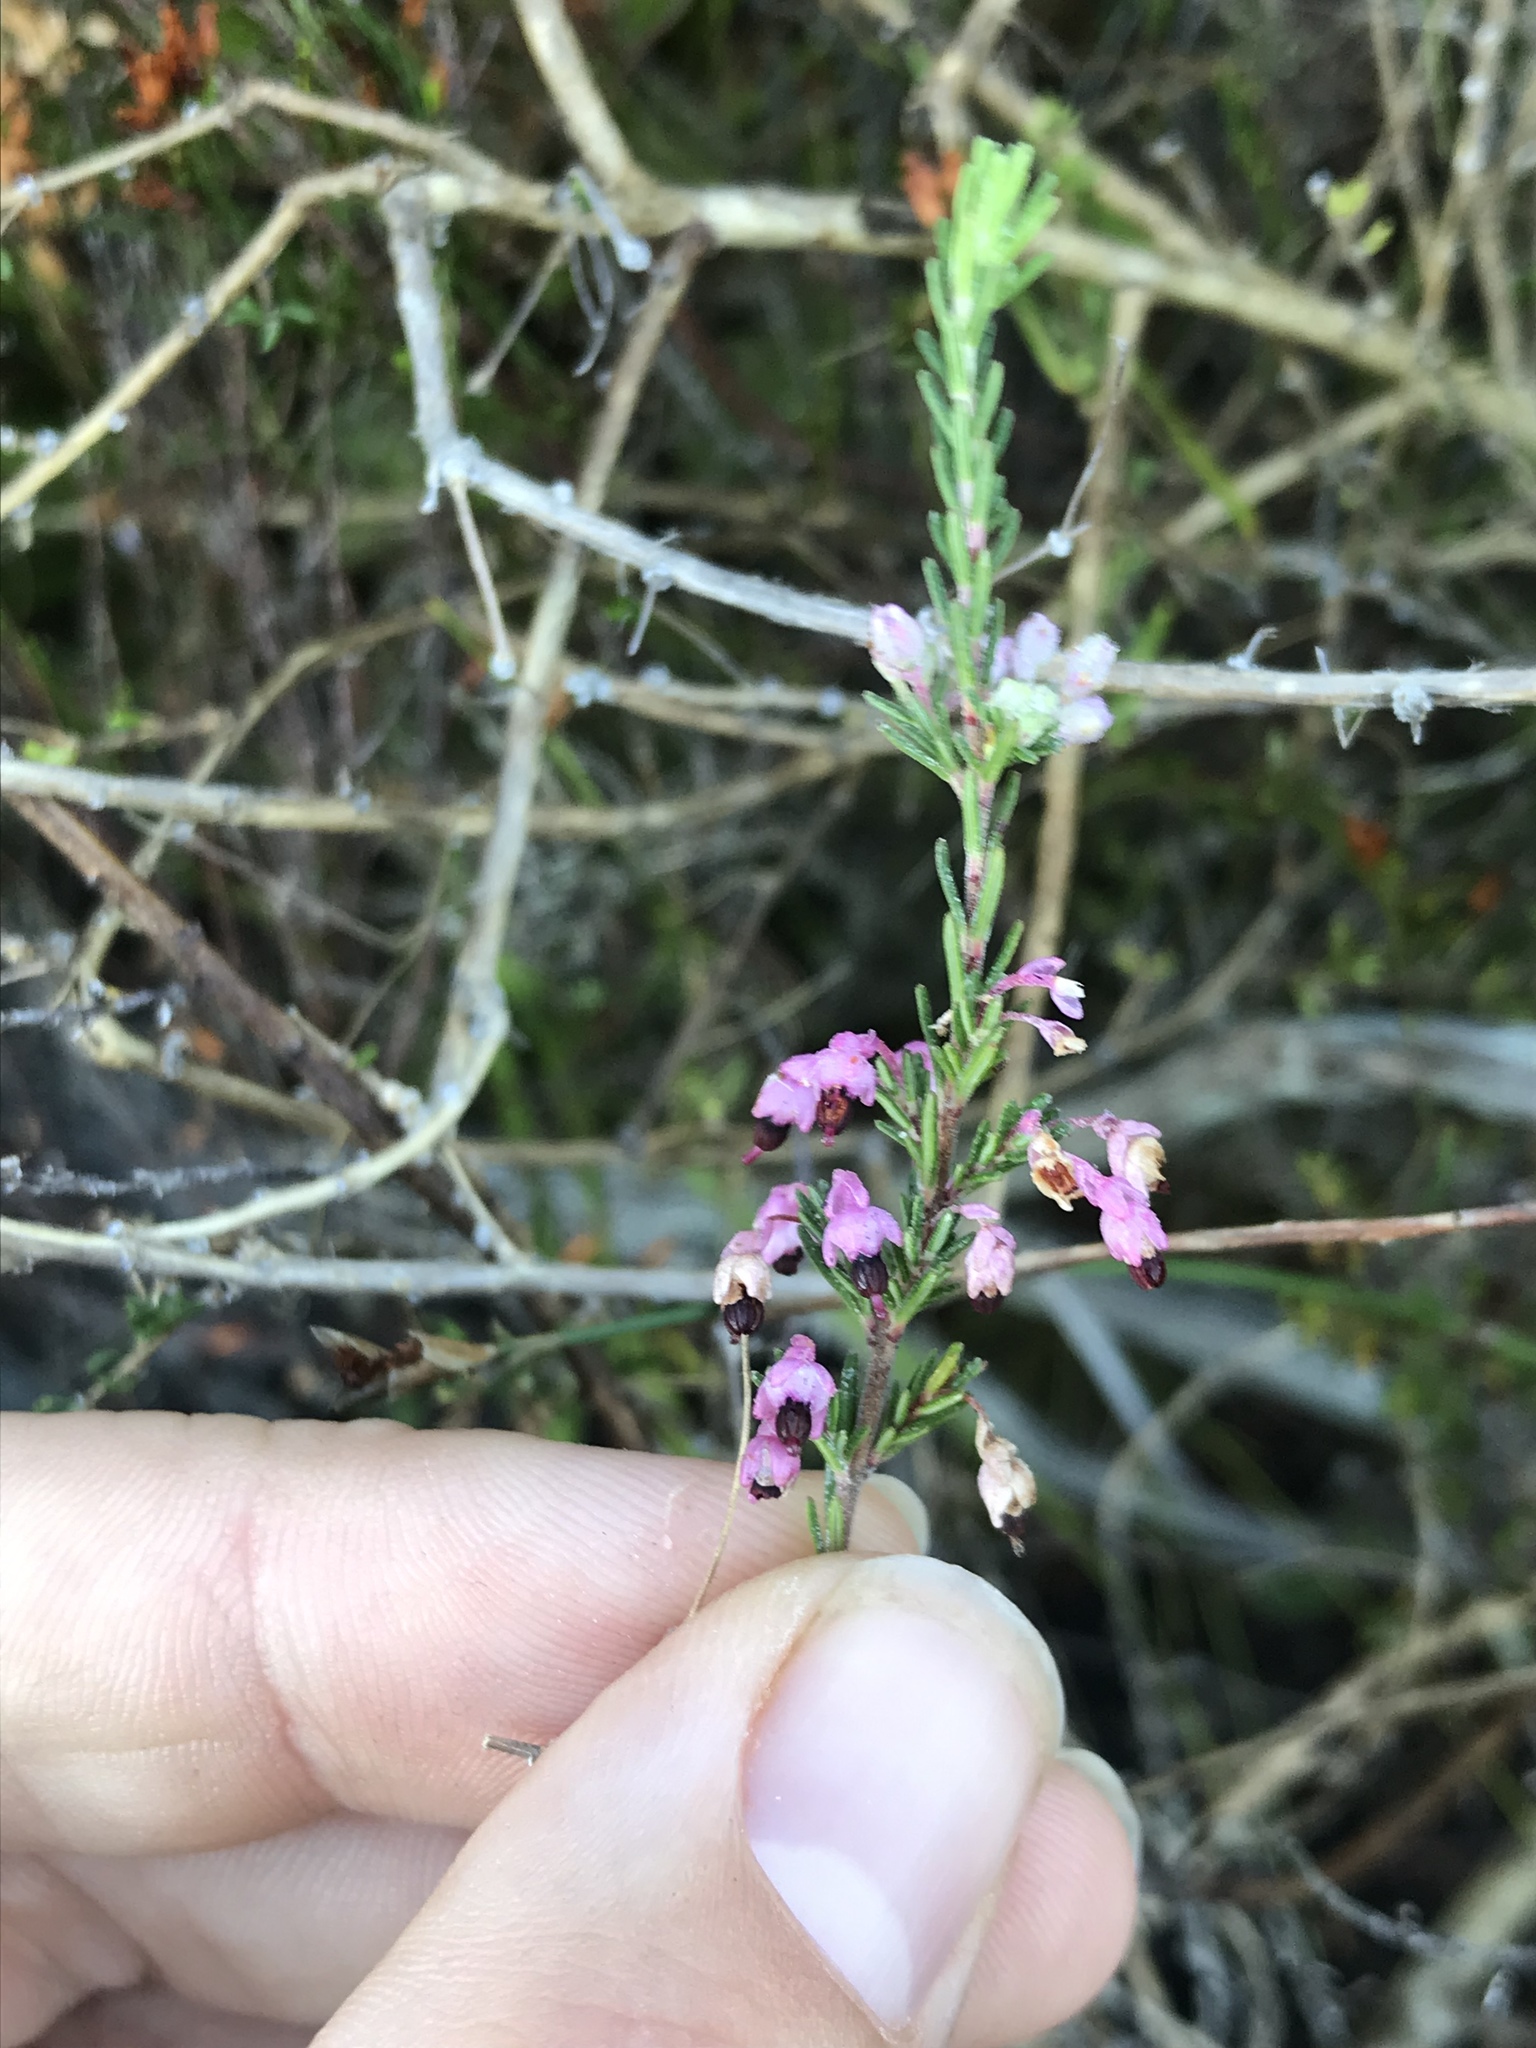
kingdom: Plantae
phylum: Tracheophyta
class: Magnoliopsida
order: Ericales
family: Ericaceae
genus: Erica
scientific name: Erica placentiflora
